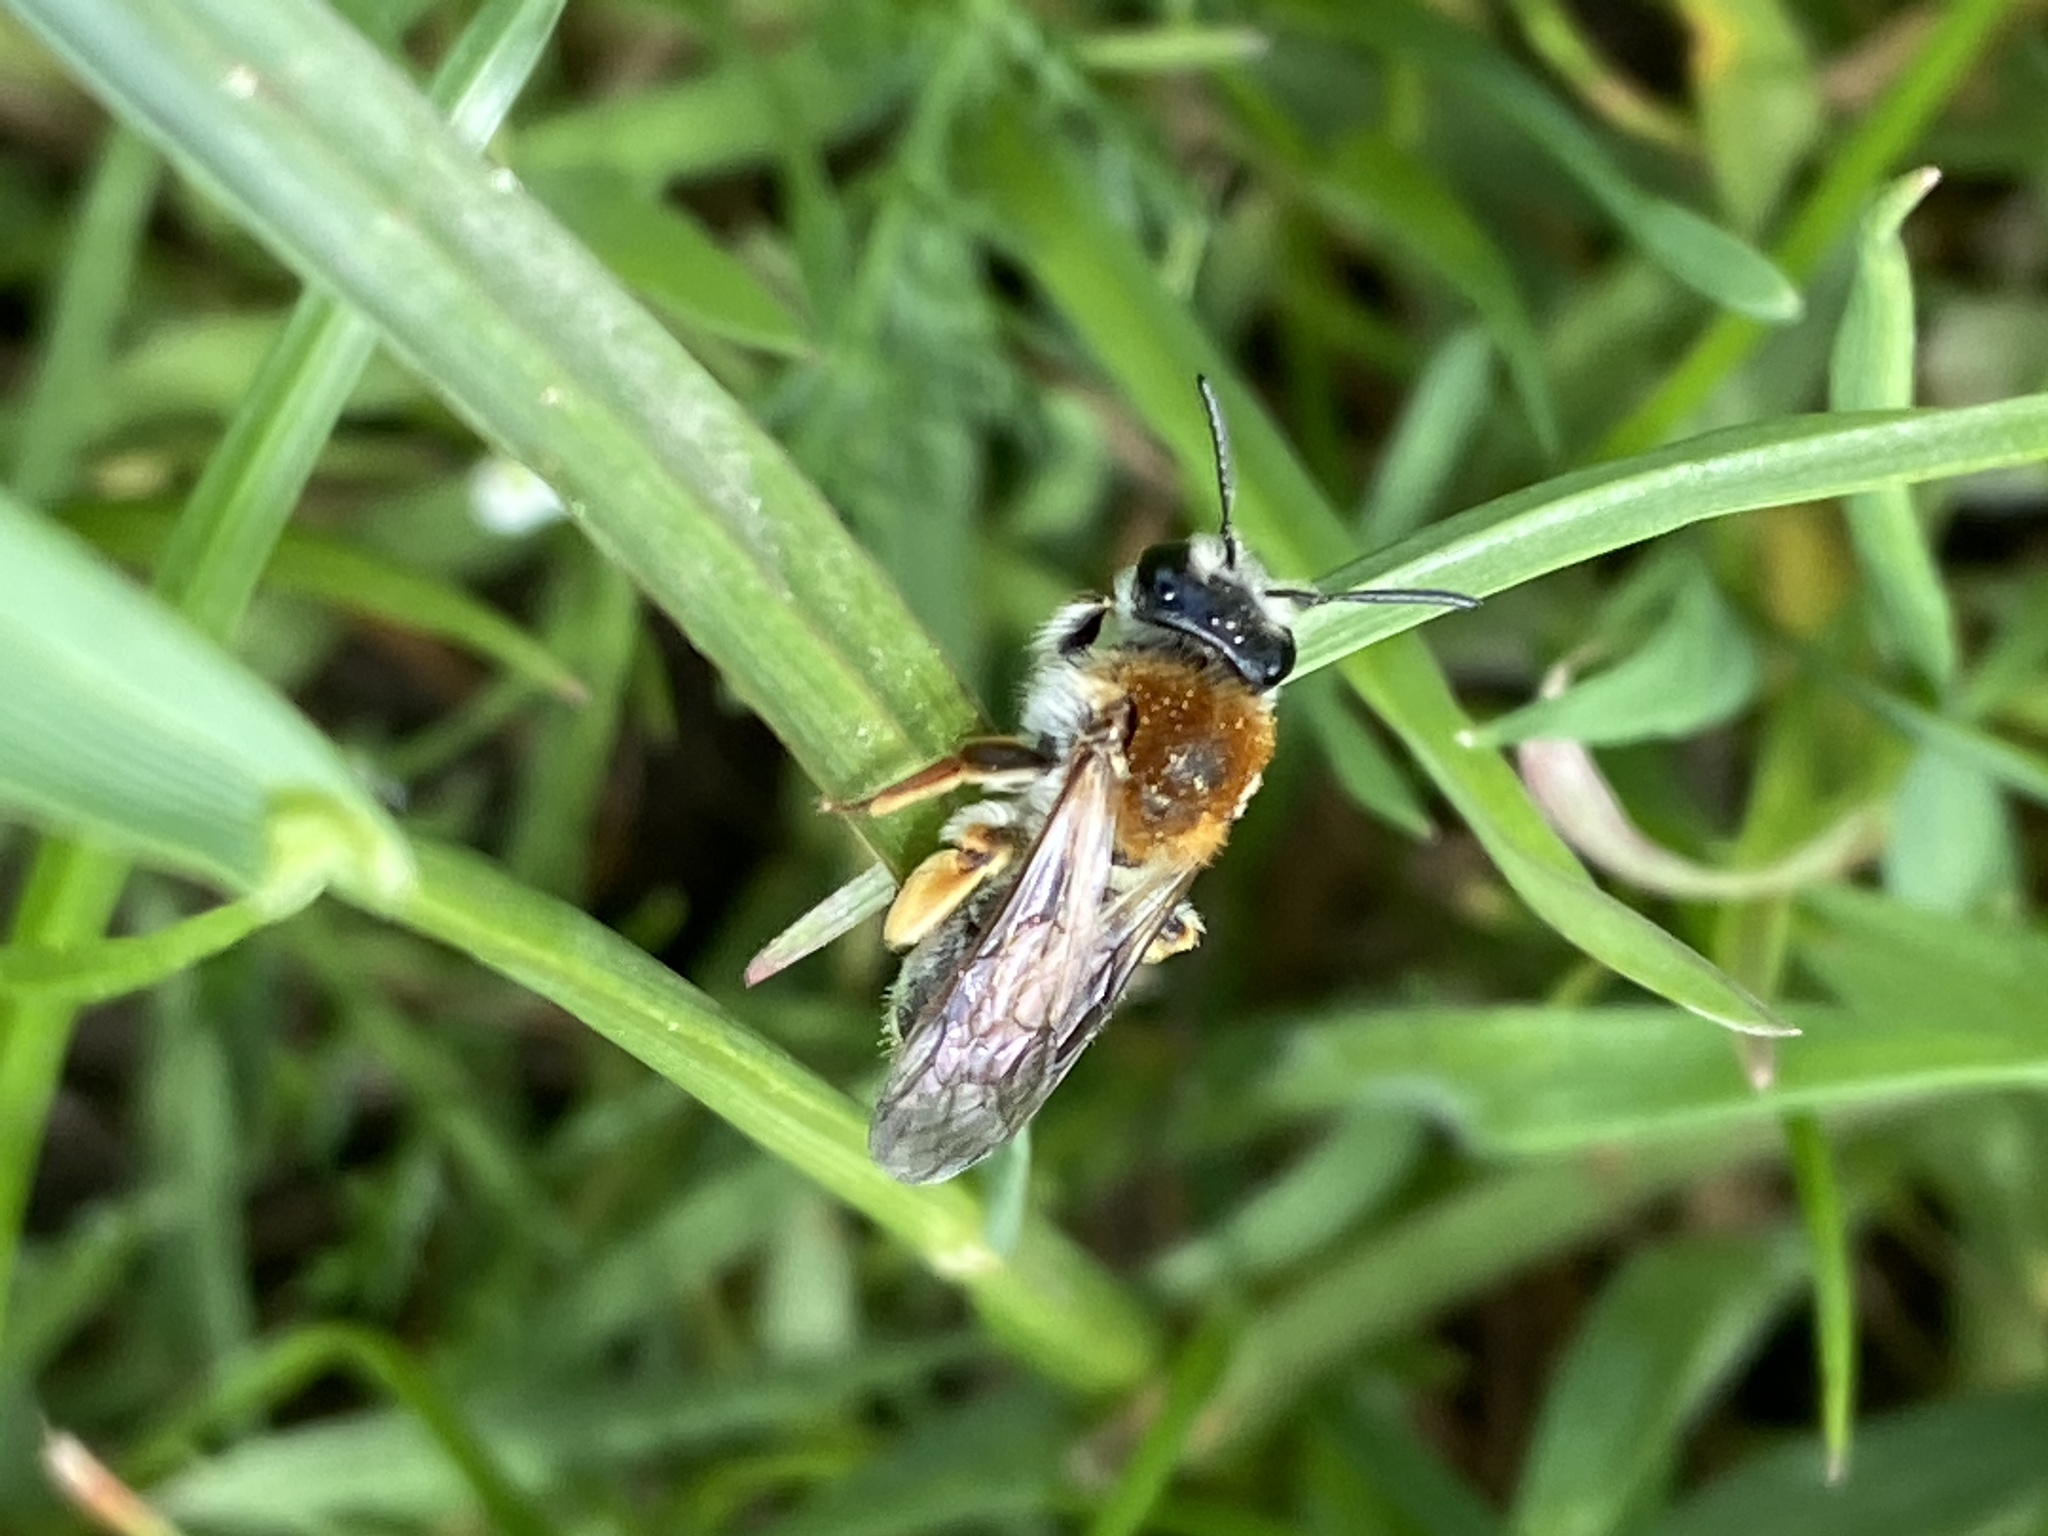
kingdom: Animalia
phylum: Arthropoda
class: Insecta
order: Hymenoptera
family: Andrenidae
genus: Andrena
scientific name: Andrena haemorrhoa
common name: Early mining bee
